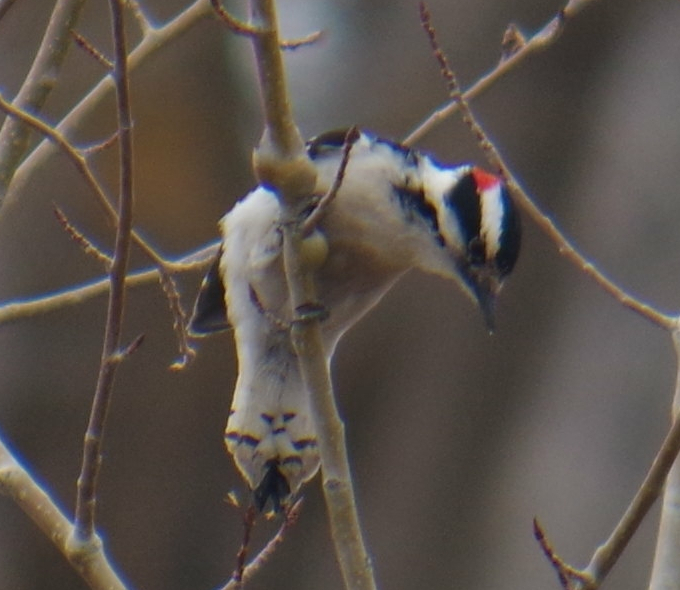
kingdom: Animalia
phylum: Chordata
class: Aves
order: Piciformes
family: Picidae
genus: Dryobates
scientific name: Dryobates pubescens
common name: Downy woodpecker
